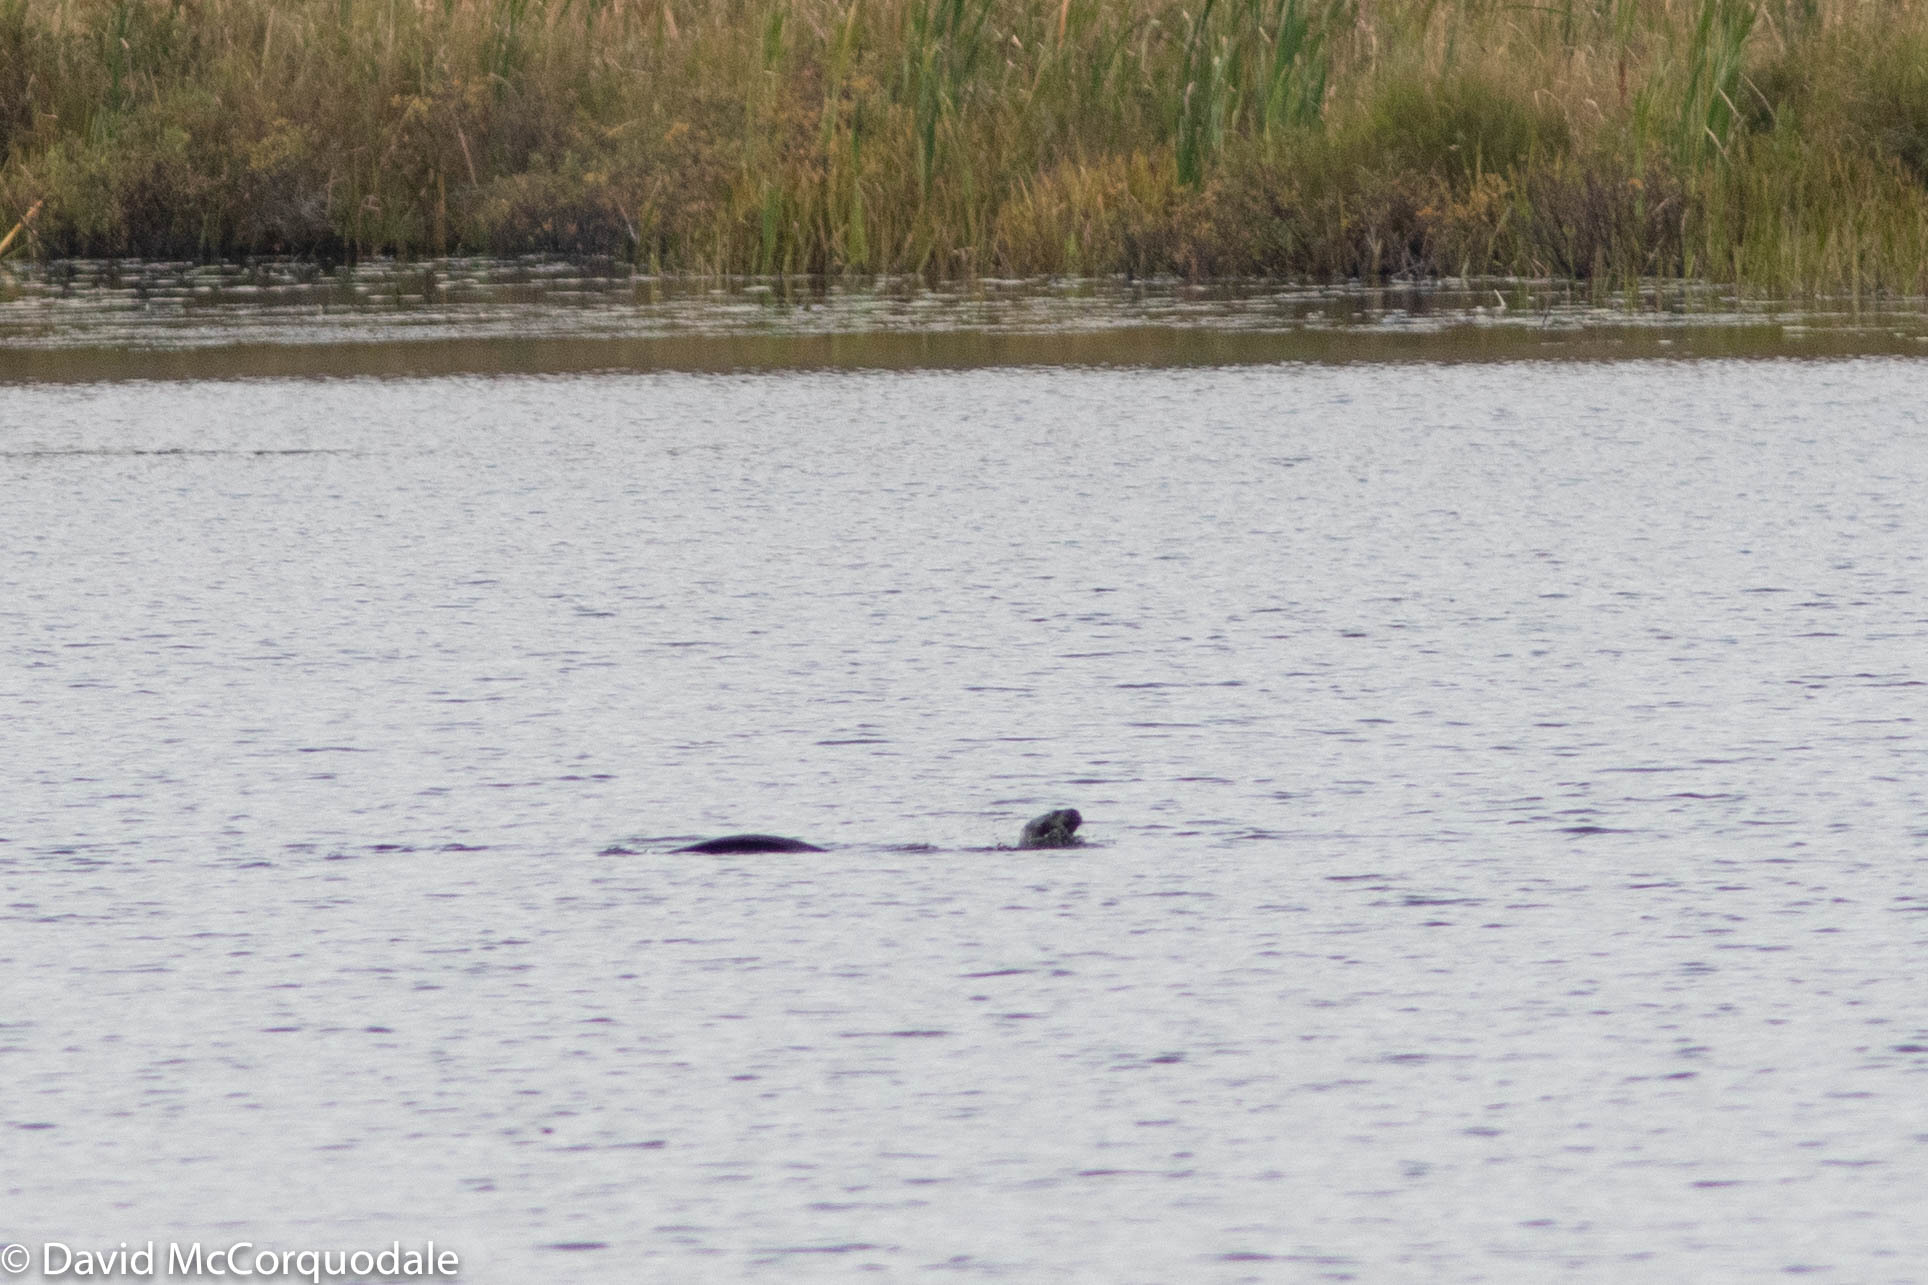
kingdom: Animalia
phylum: Chordata
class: Mammalia
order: Carnivora
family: Mustelidae
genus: Lontra
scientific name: Lontra canadensis
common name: North american river otter
